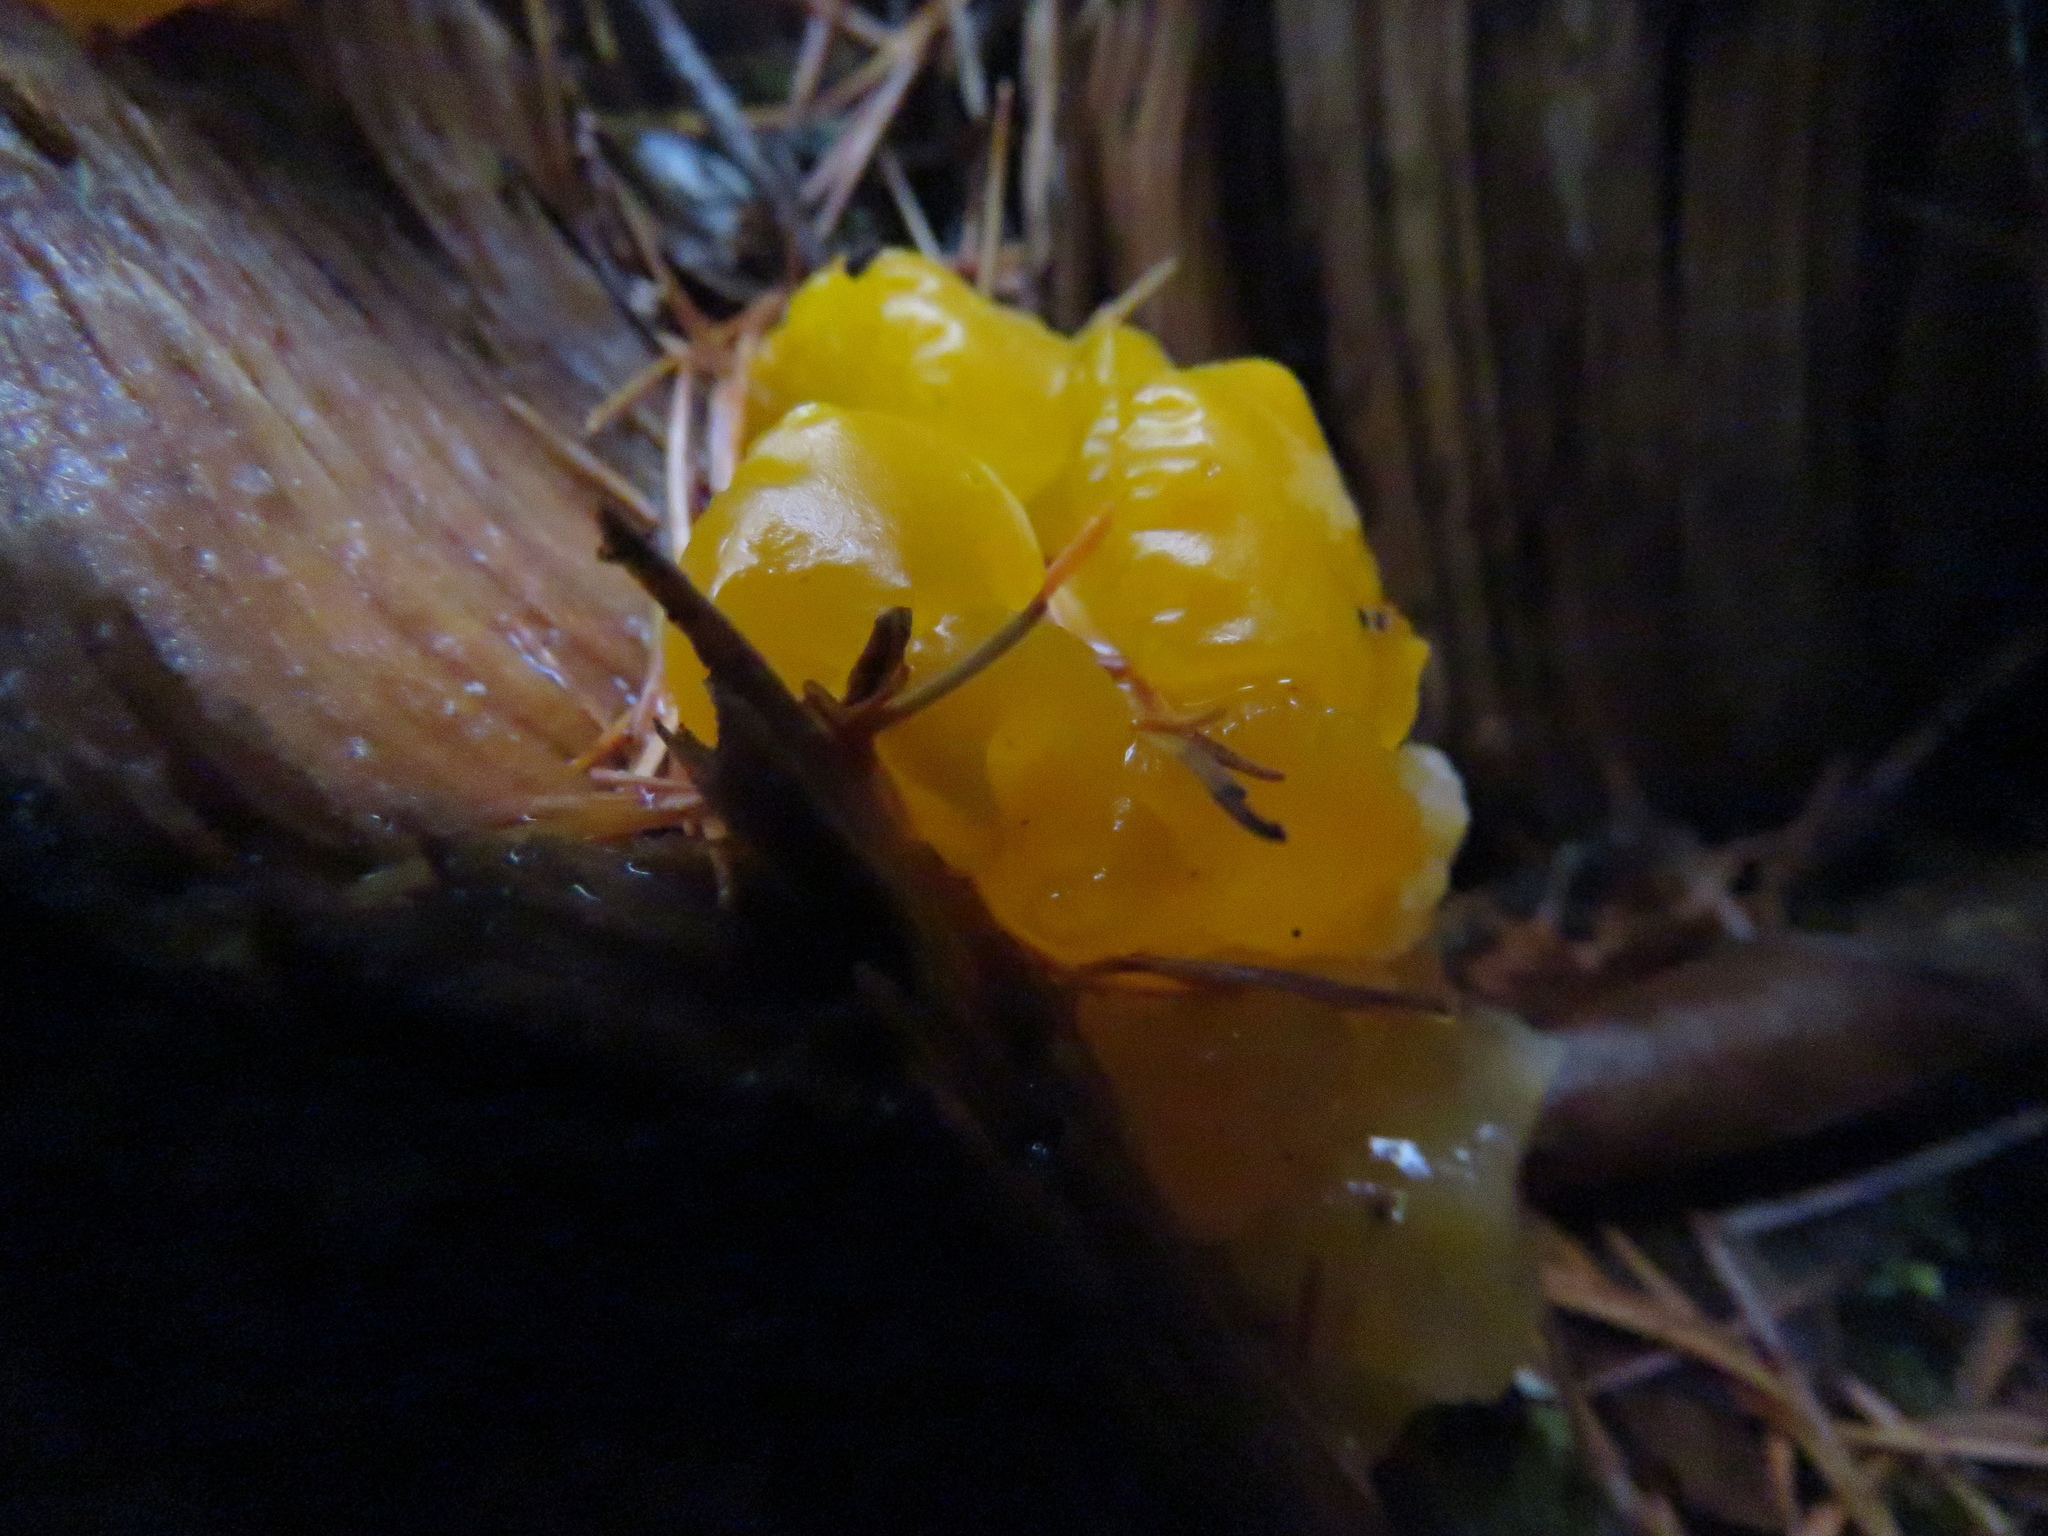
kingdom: Fungi
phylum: Basidiomycota
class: Dacrymycetes
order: Dacrymycetales
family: Dacrymycetaceae
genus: Dacrymyces
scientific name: Dacrymyces chrysospermus
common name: Orange jelly spot
